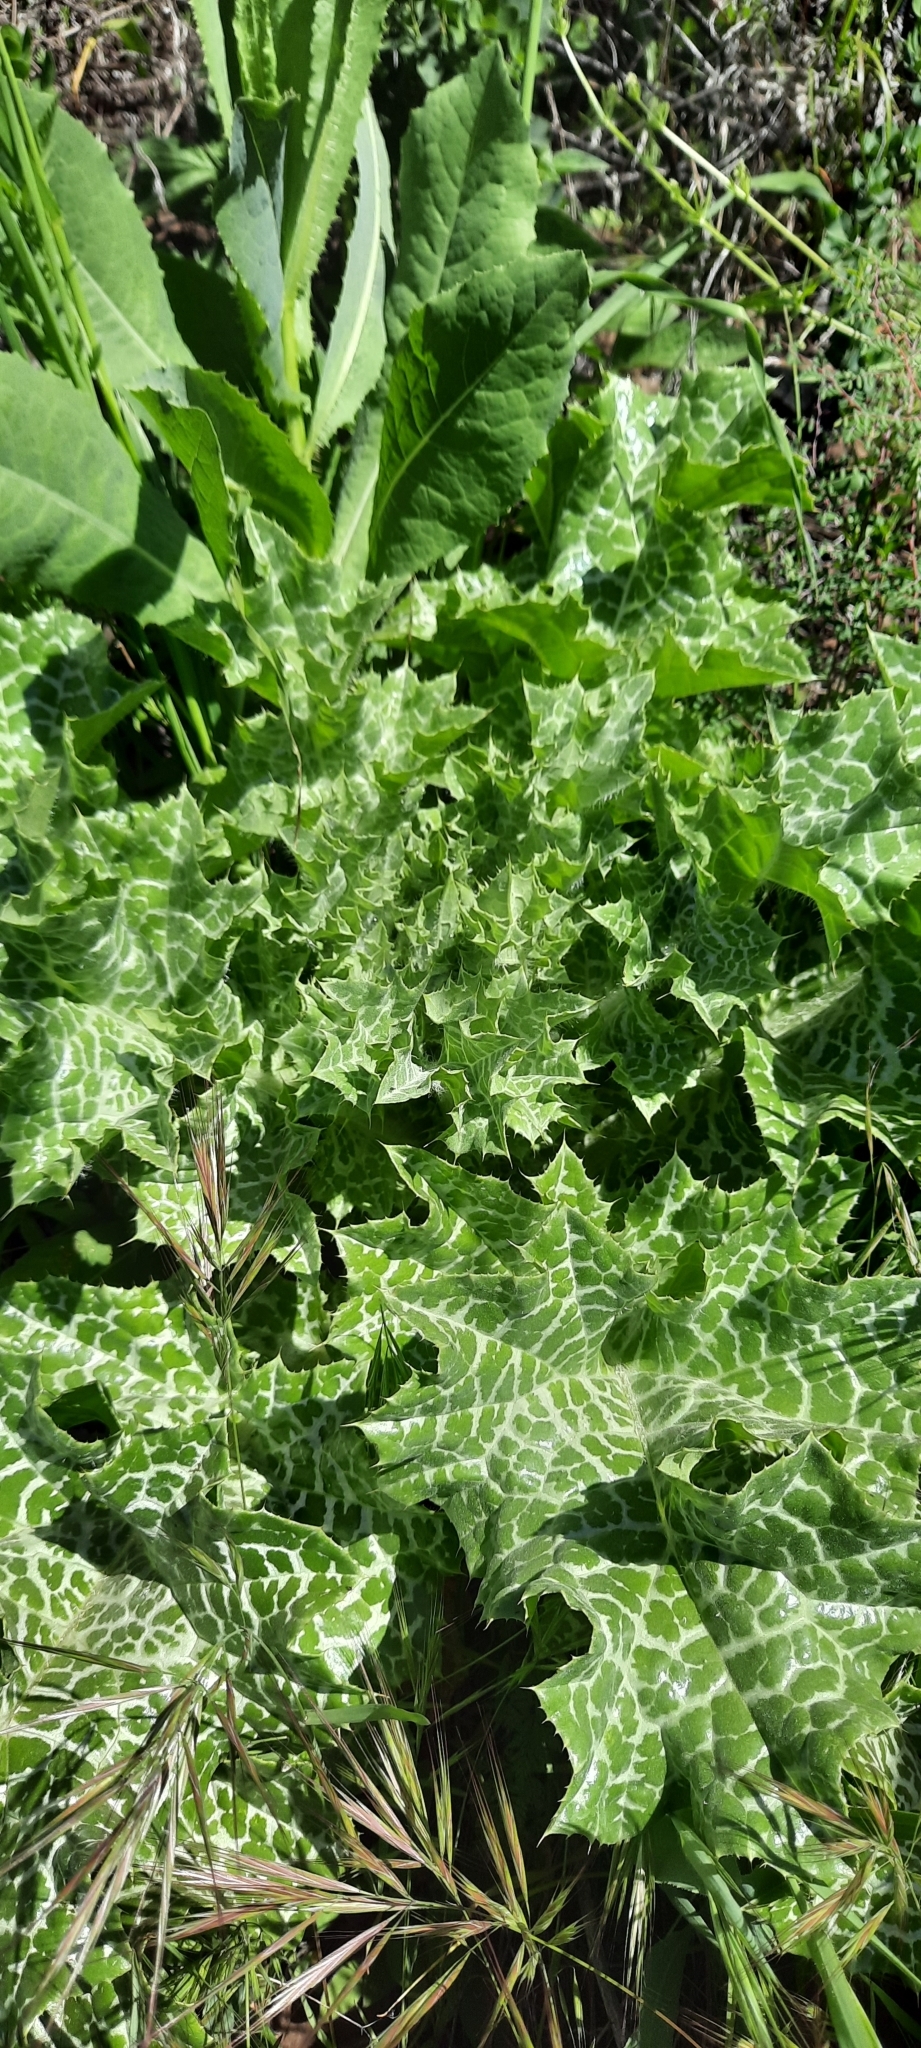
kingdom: Plantae
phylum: Tracheophyta
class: Magnoliopsida
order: Asterales
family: Asteraceae
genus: Silybum
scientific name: Silybum marianum
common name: Milk thistle
